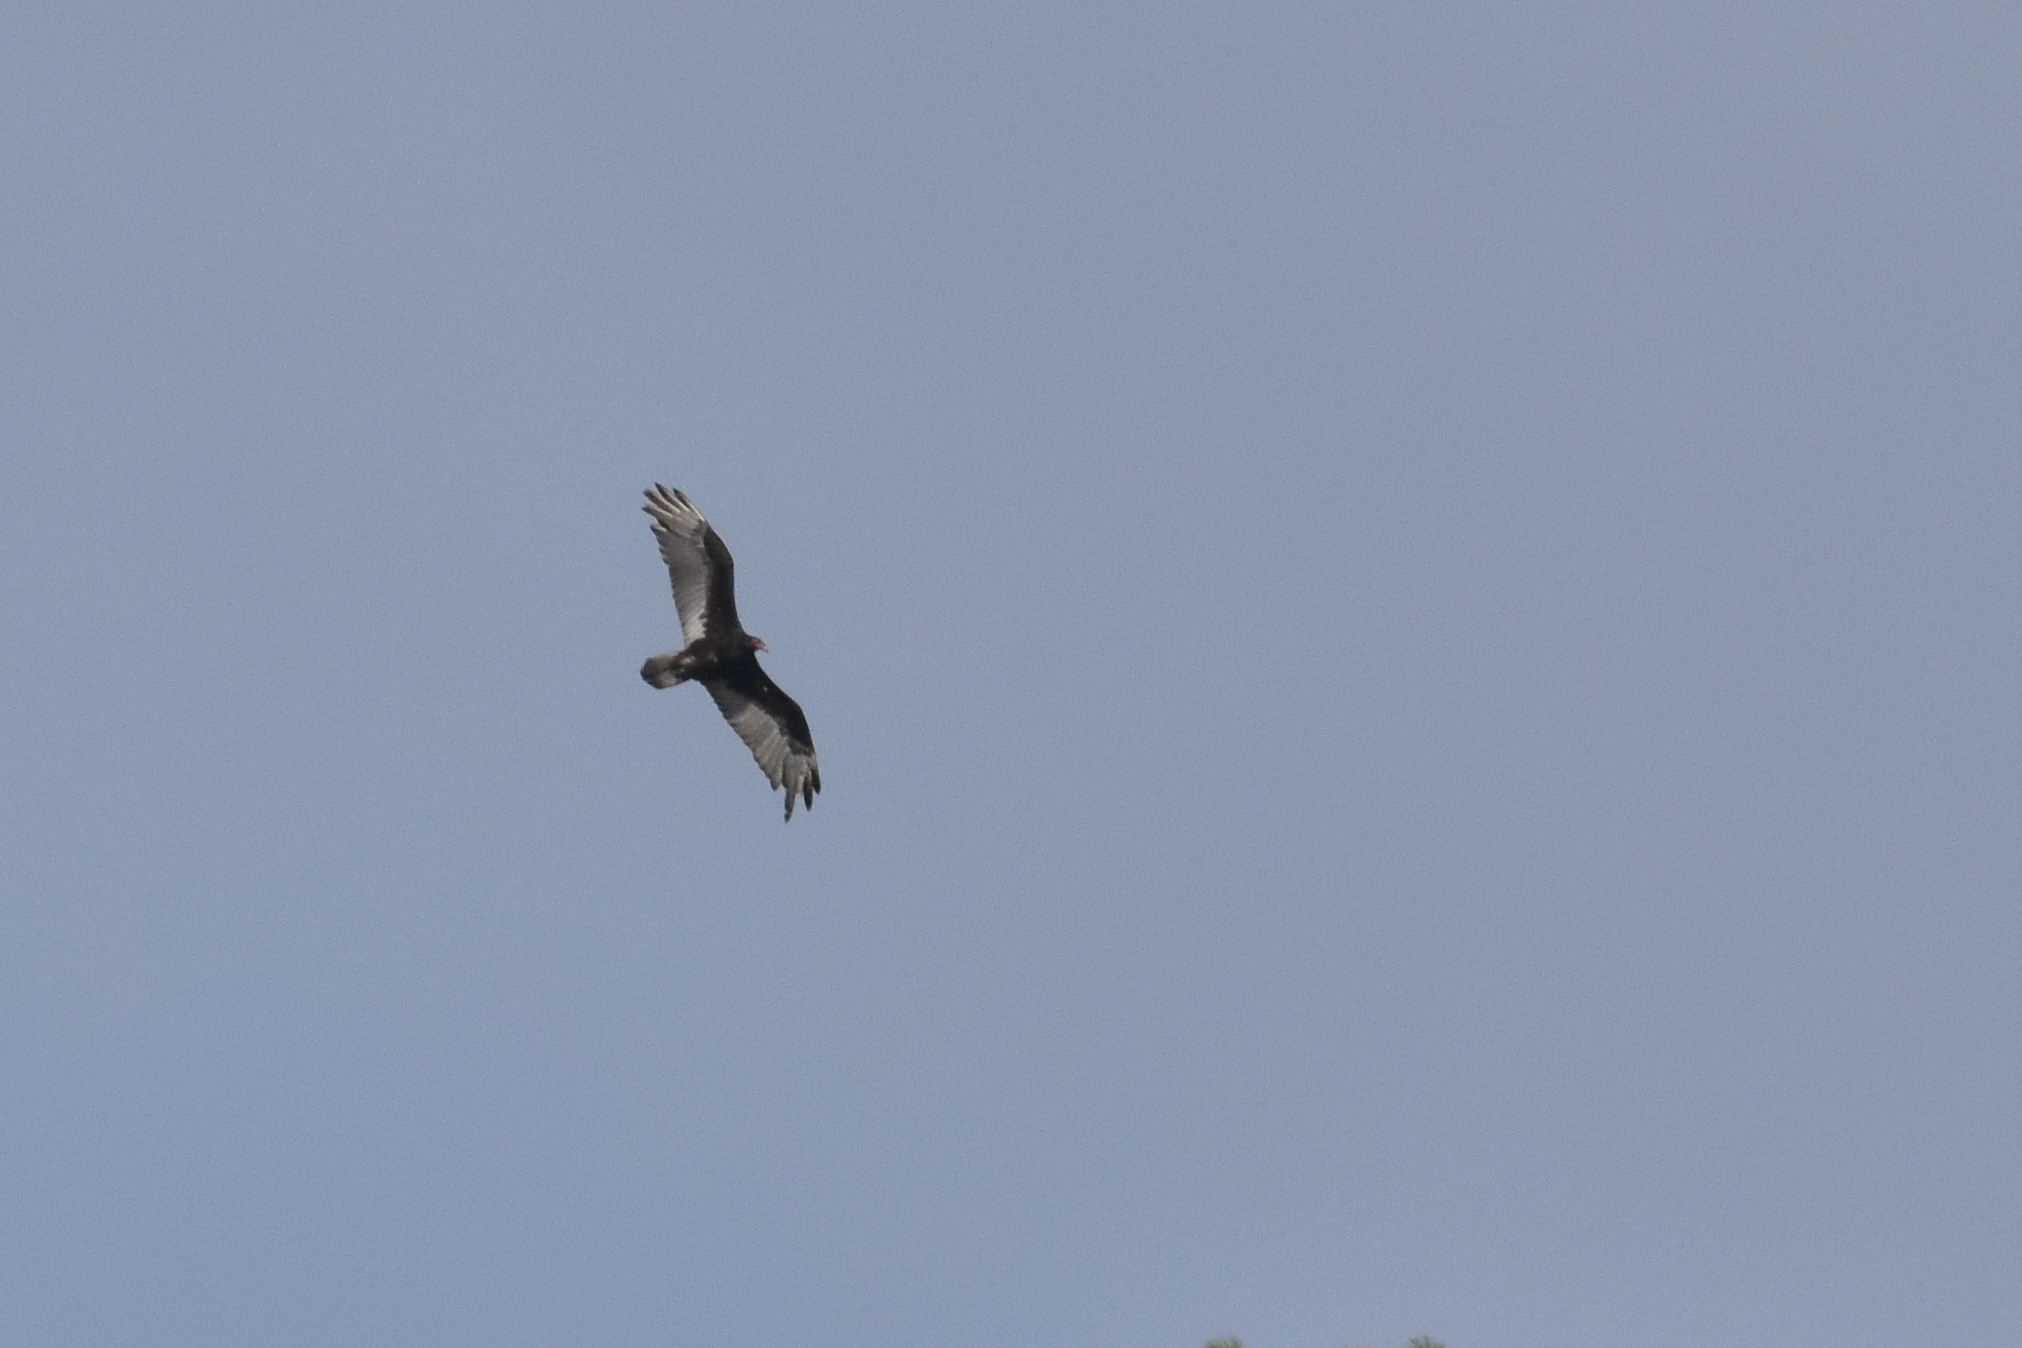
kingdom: Animalia
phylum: Chordata
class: Aves
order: Accipitriformes
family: Cathartidae
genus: Cathartes
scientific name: Cathartes aura
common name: Turkey vulture
